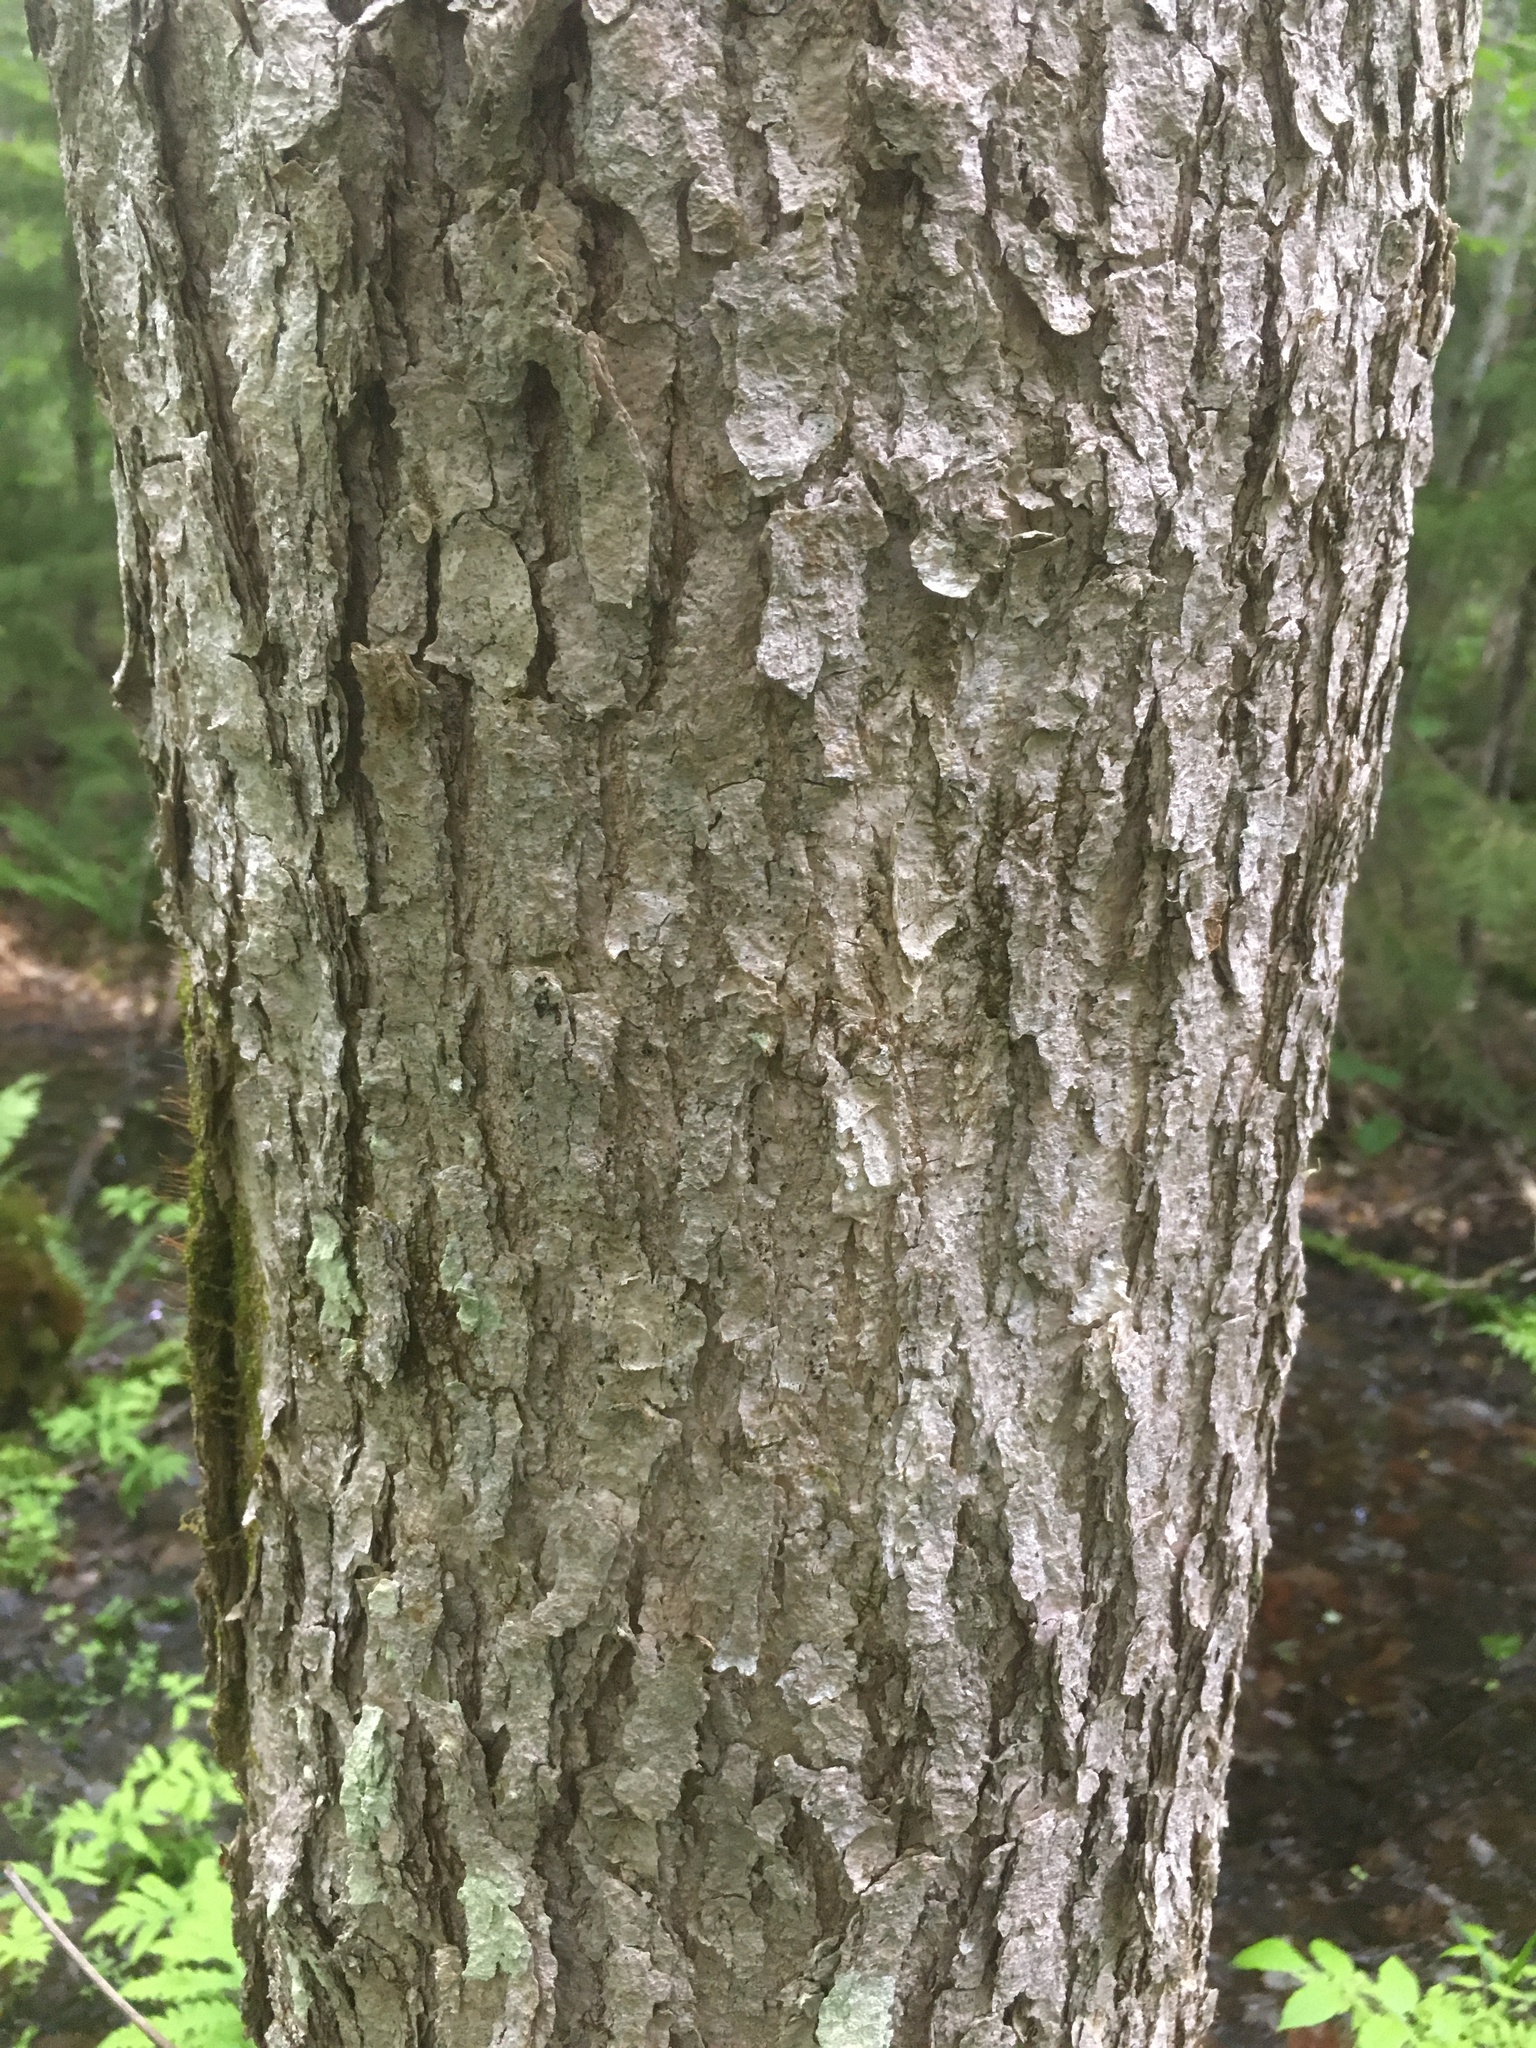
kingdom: Plantae
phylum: Tracheophyta
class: Magnoliopsida
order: Lamiales
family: Oleaceae
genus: Fraxinus
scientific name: Fraxinus nigra
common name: Black ash
